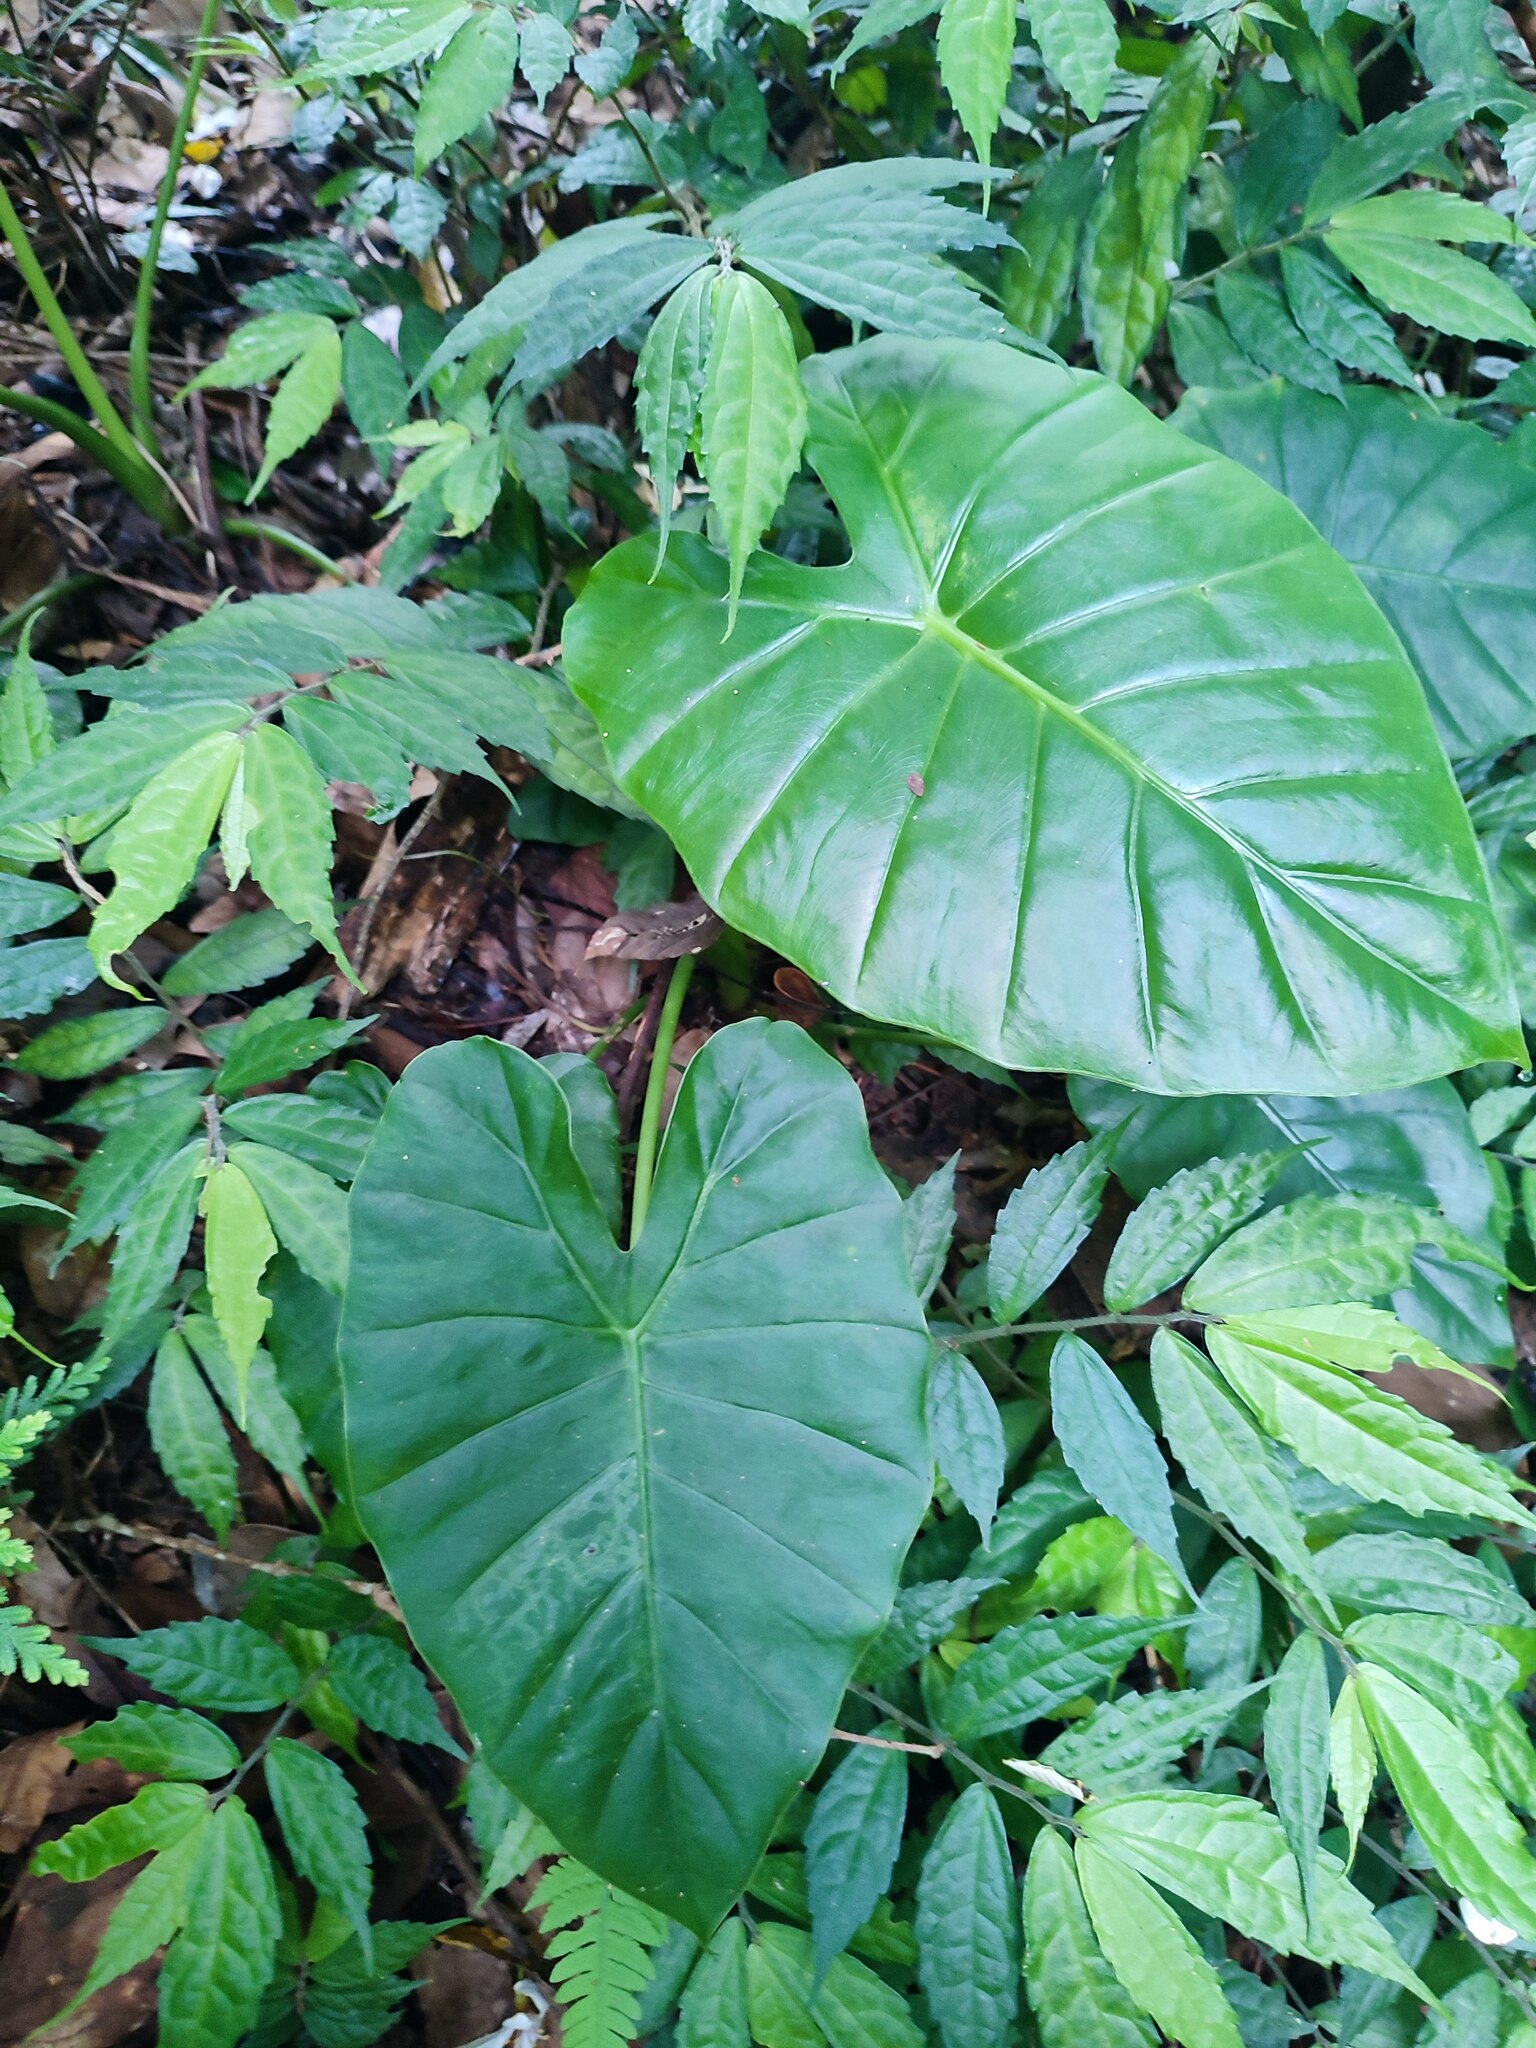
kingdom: Plantae
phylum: Tracheophyta
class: Liliopsida
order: Alismatales
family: Araceae
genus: Alocasia
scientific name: Alocasia odora
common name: Asian taro
